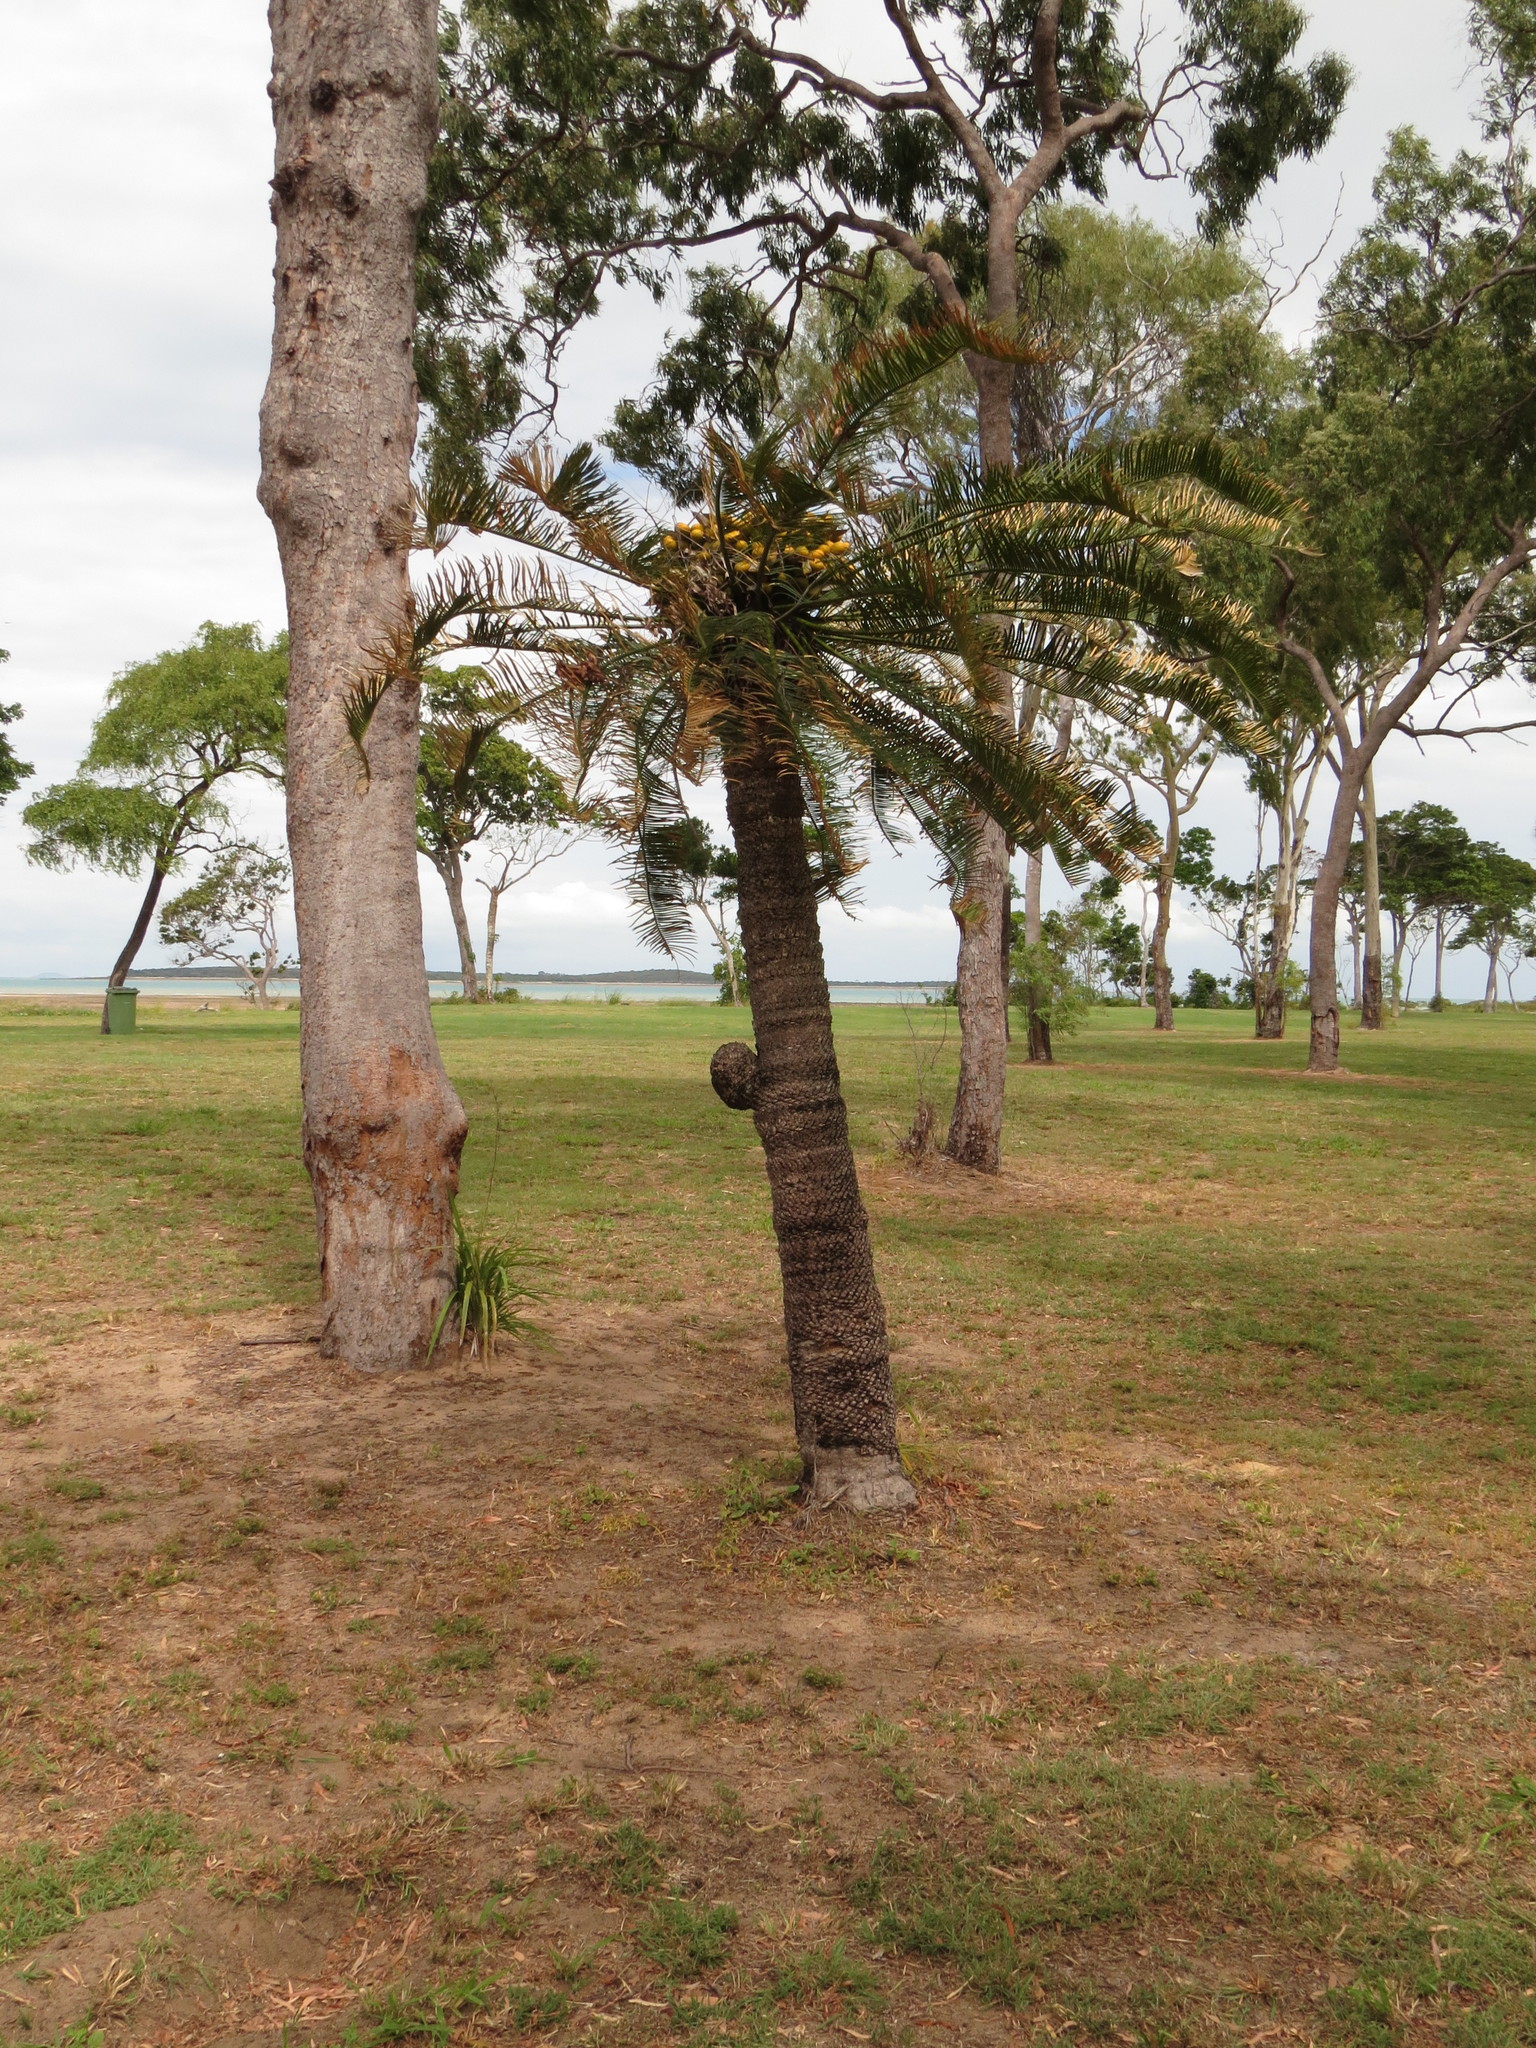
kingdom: Plantae
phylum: Tracheophyta
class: Cycadopsida
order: Cycadales
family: Cycadaceae
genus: Cycas
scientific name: Cycas media
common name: Queensland cycas
